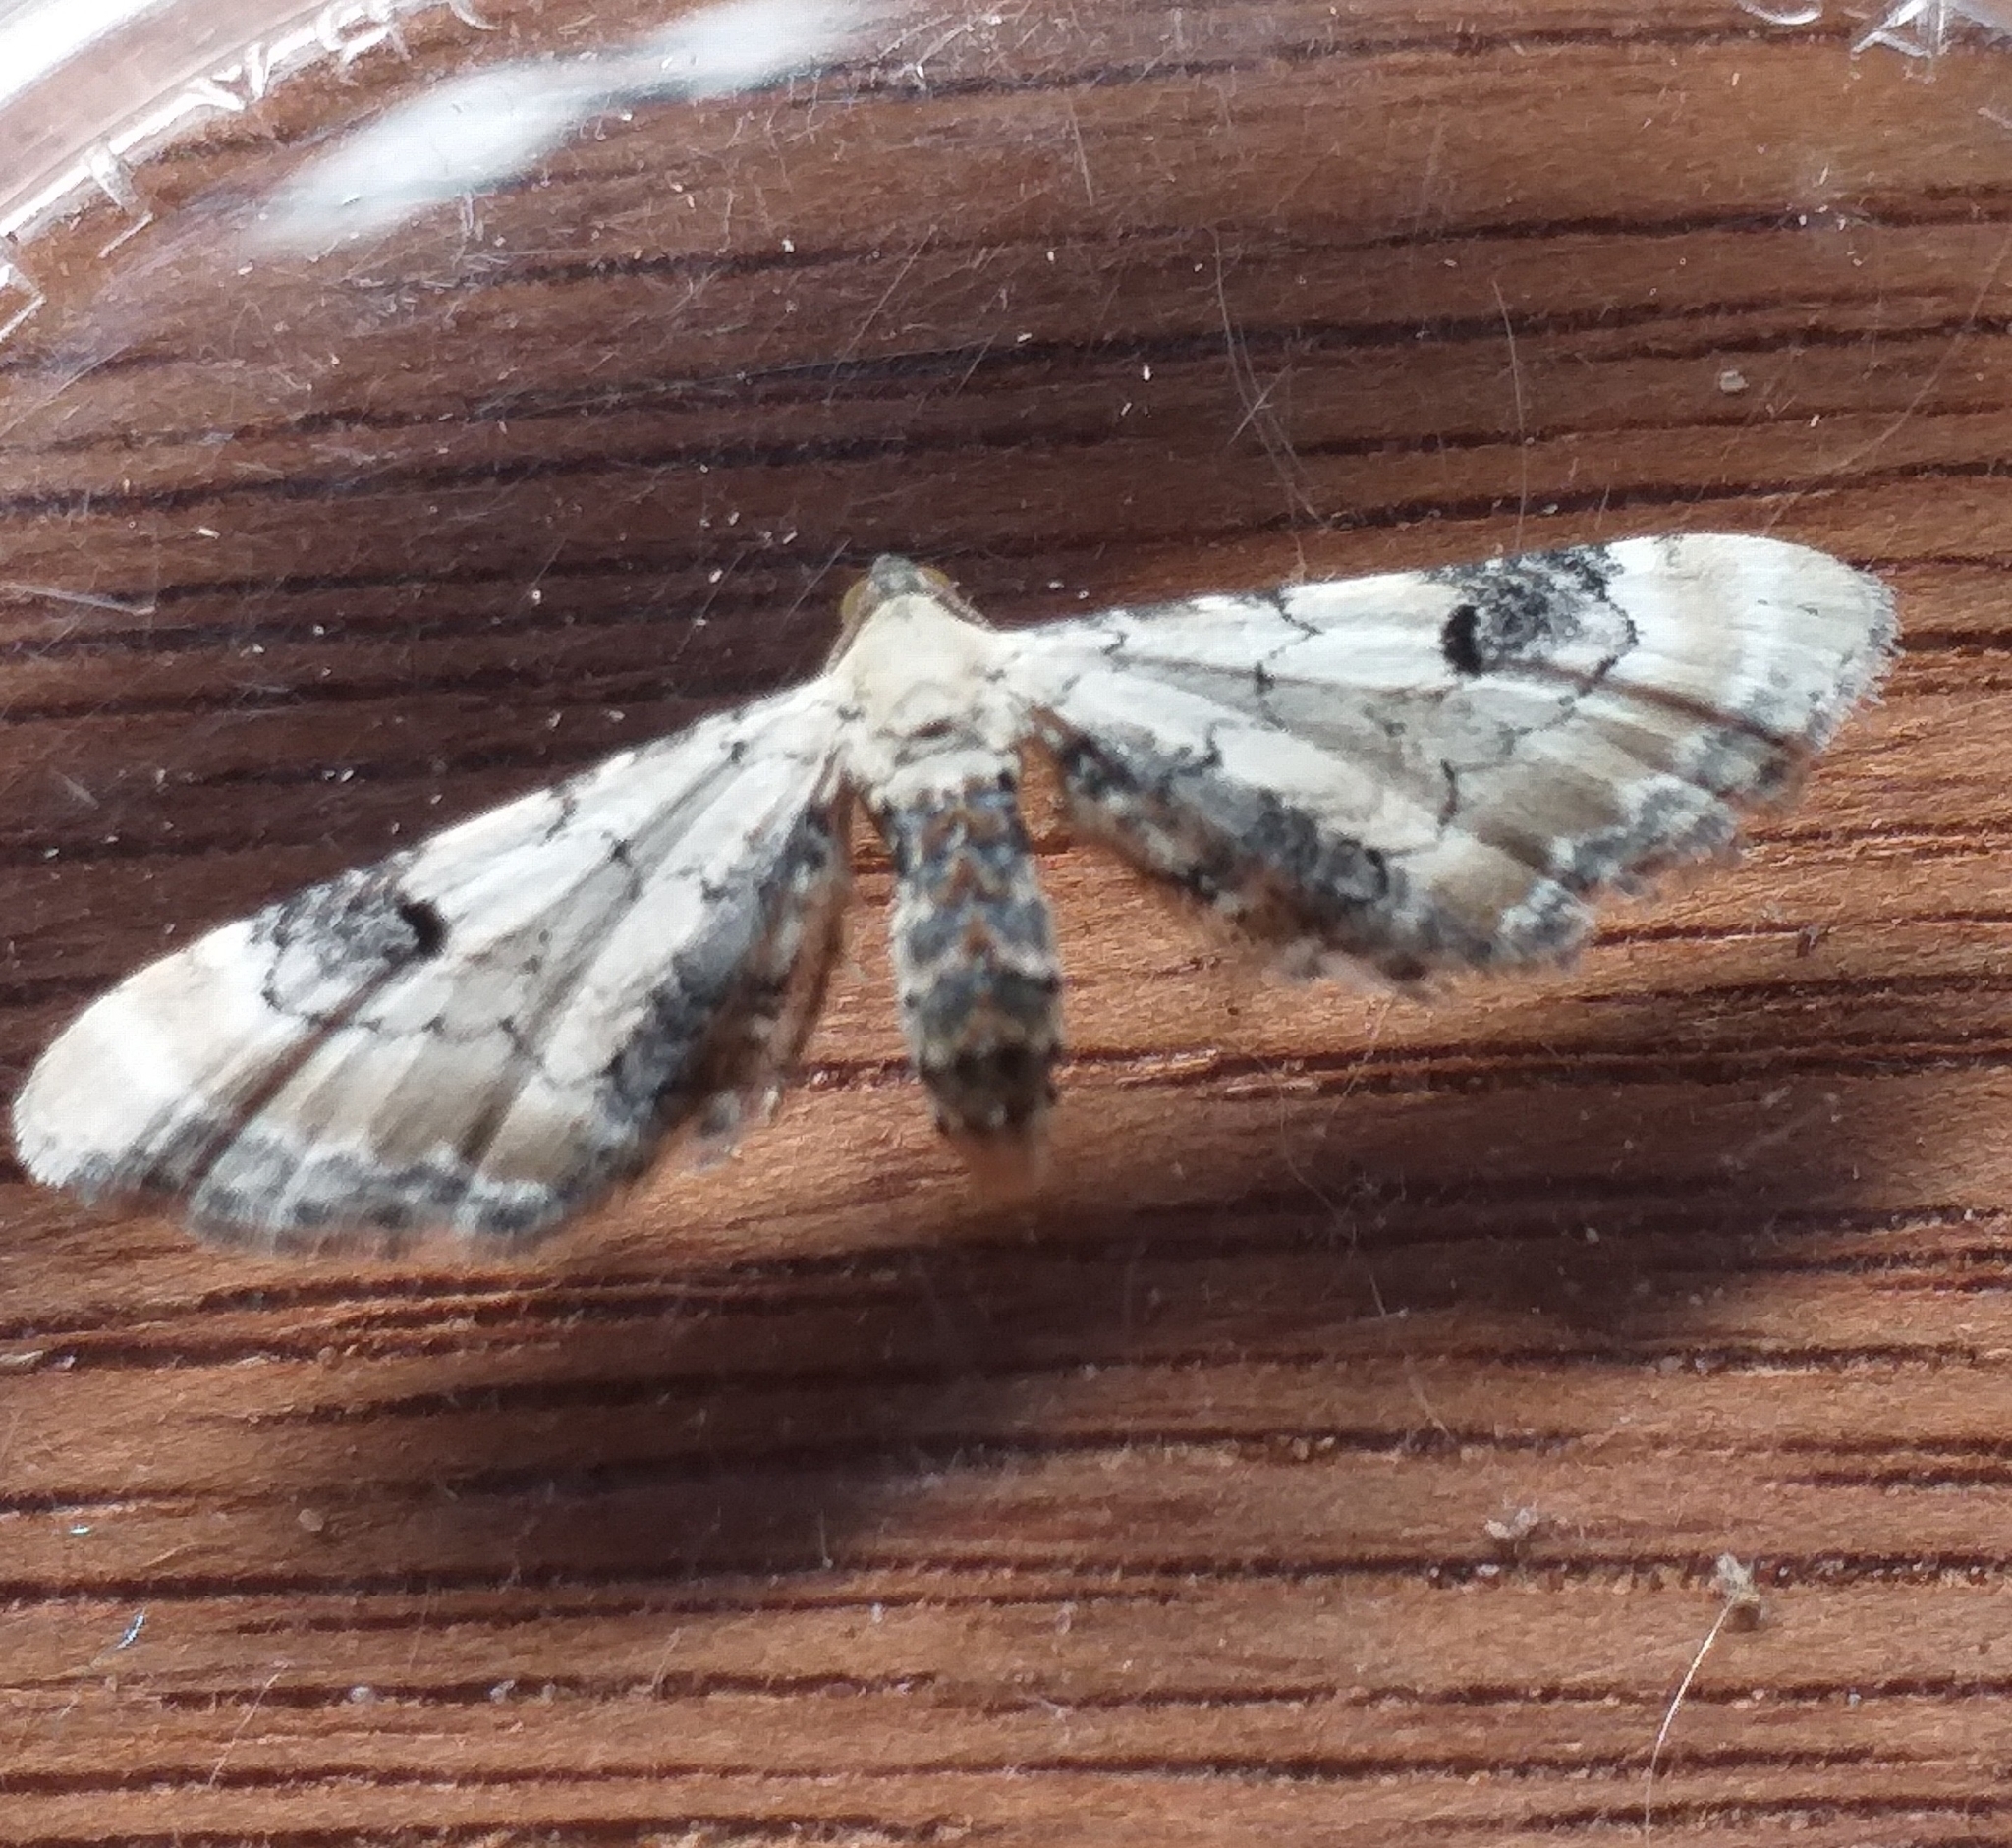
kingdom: Animalia
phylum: Arthropoda
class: Insecta
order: Lepidoptera
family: Geometridae
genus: Eupithecia
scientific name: Eupithecia centaureata
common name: Lime-speck pug
